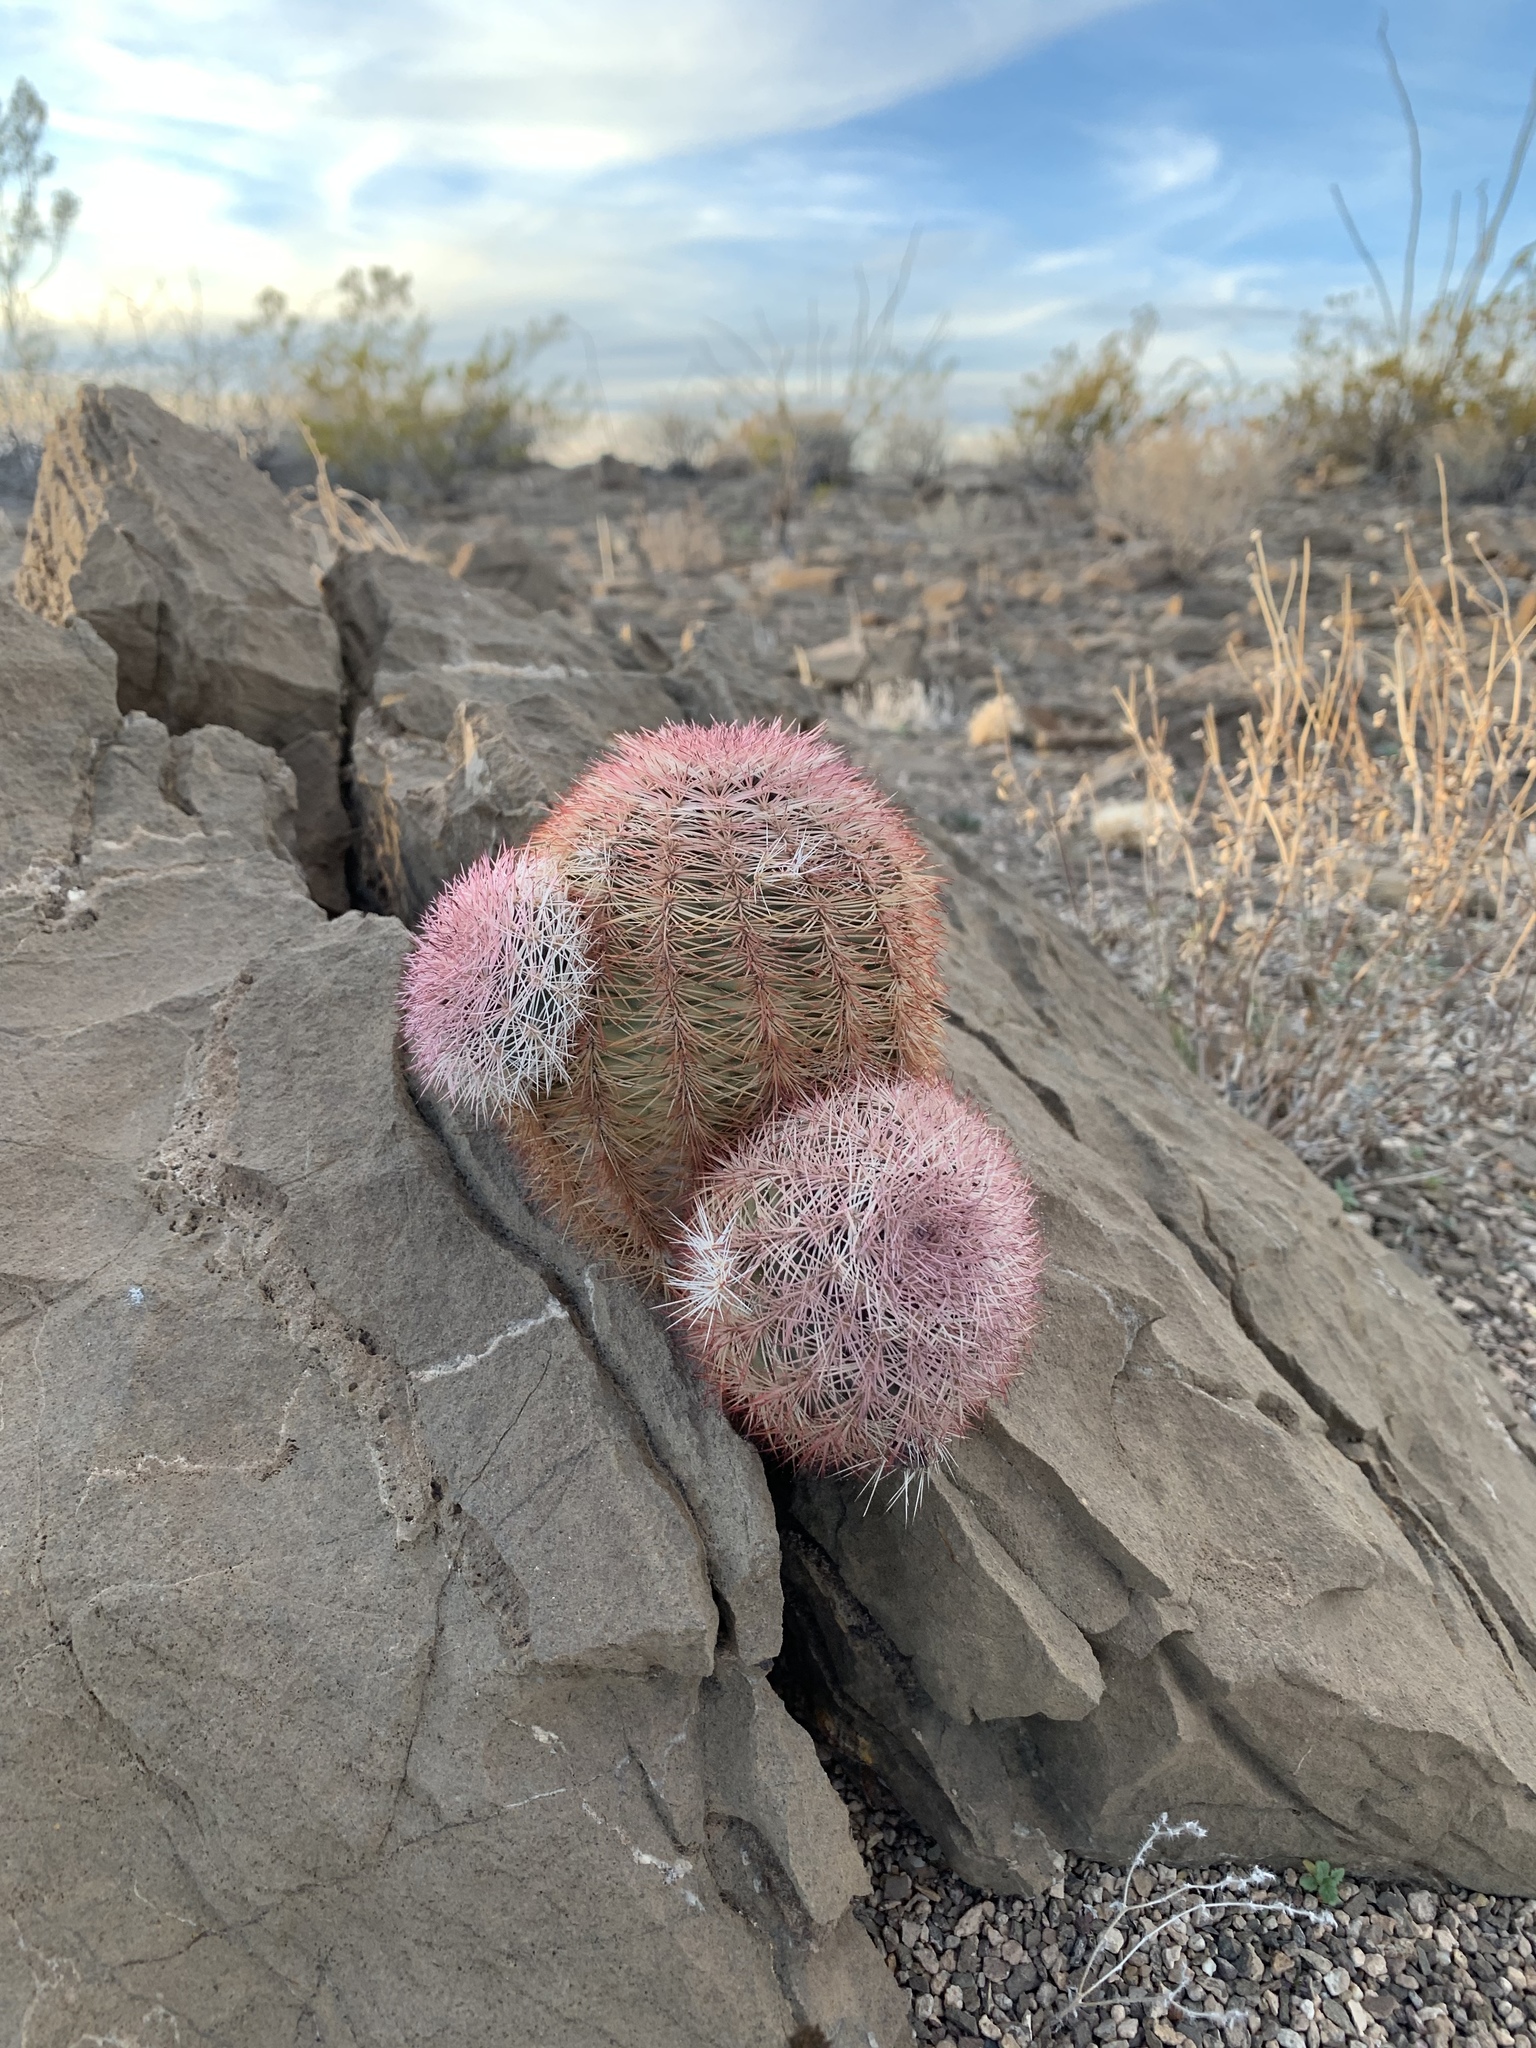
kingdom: Plantae
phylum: Tracheophyta
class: Magnoliopsida
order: Caryophyllales
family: Cactaceae
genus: Echinocereus
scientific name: Echinocereus dasyacanthus
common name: Spiny hedgehog cactus
